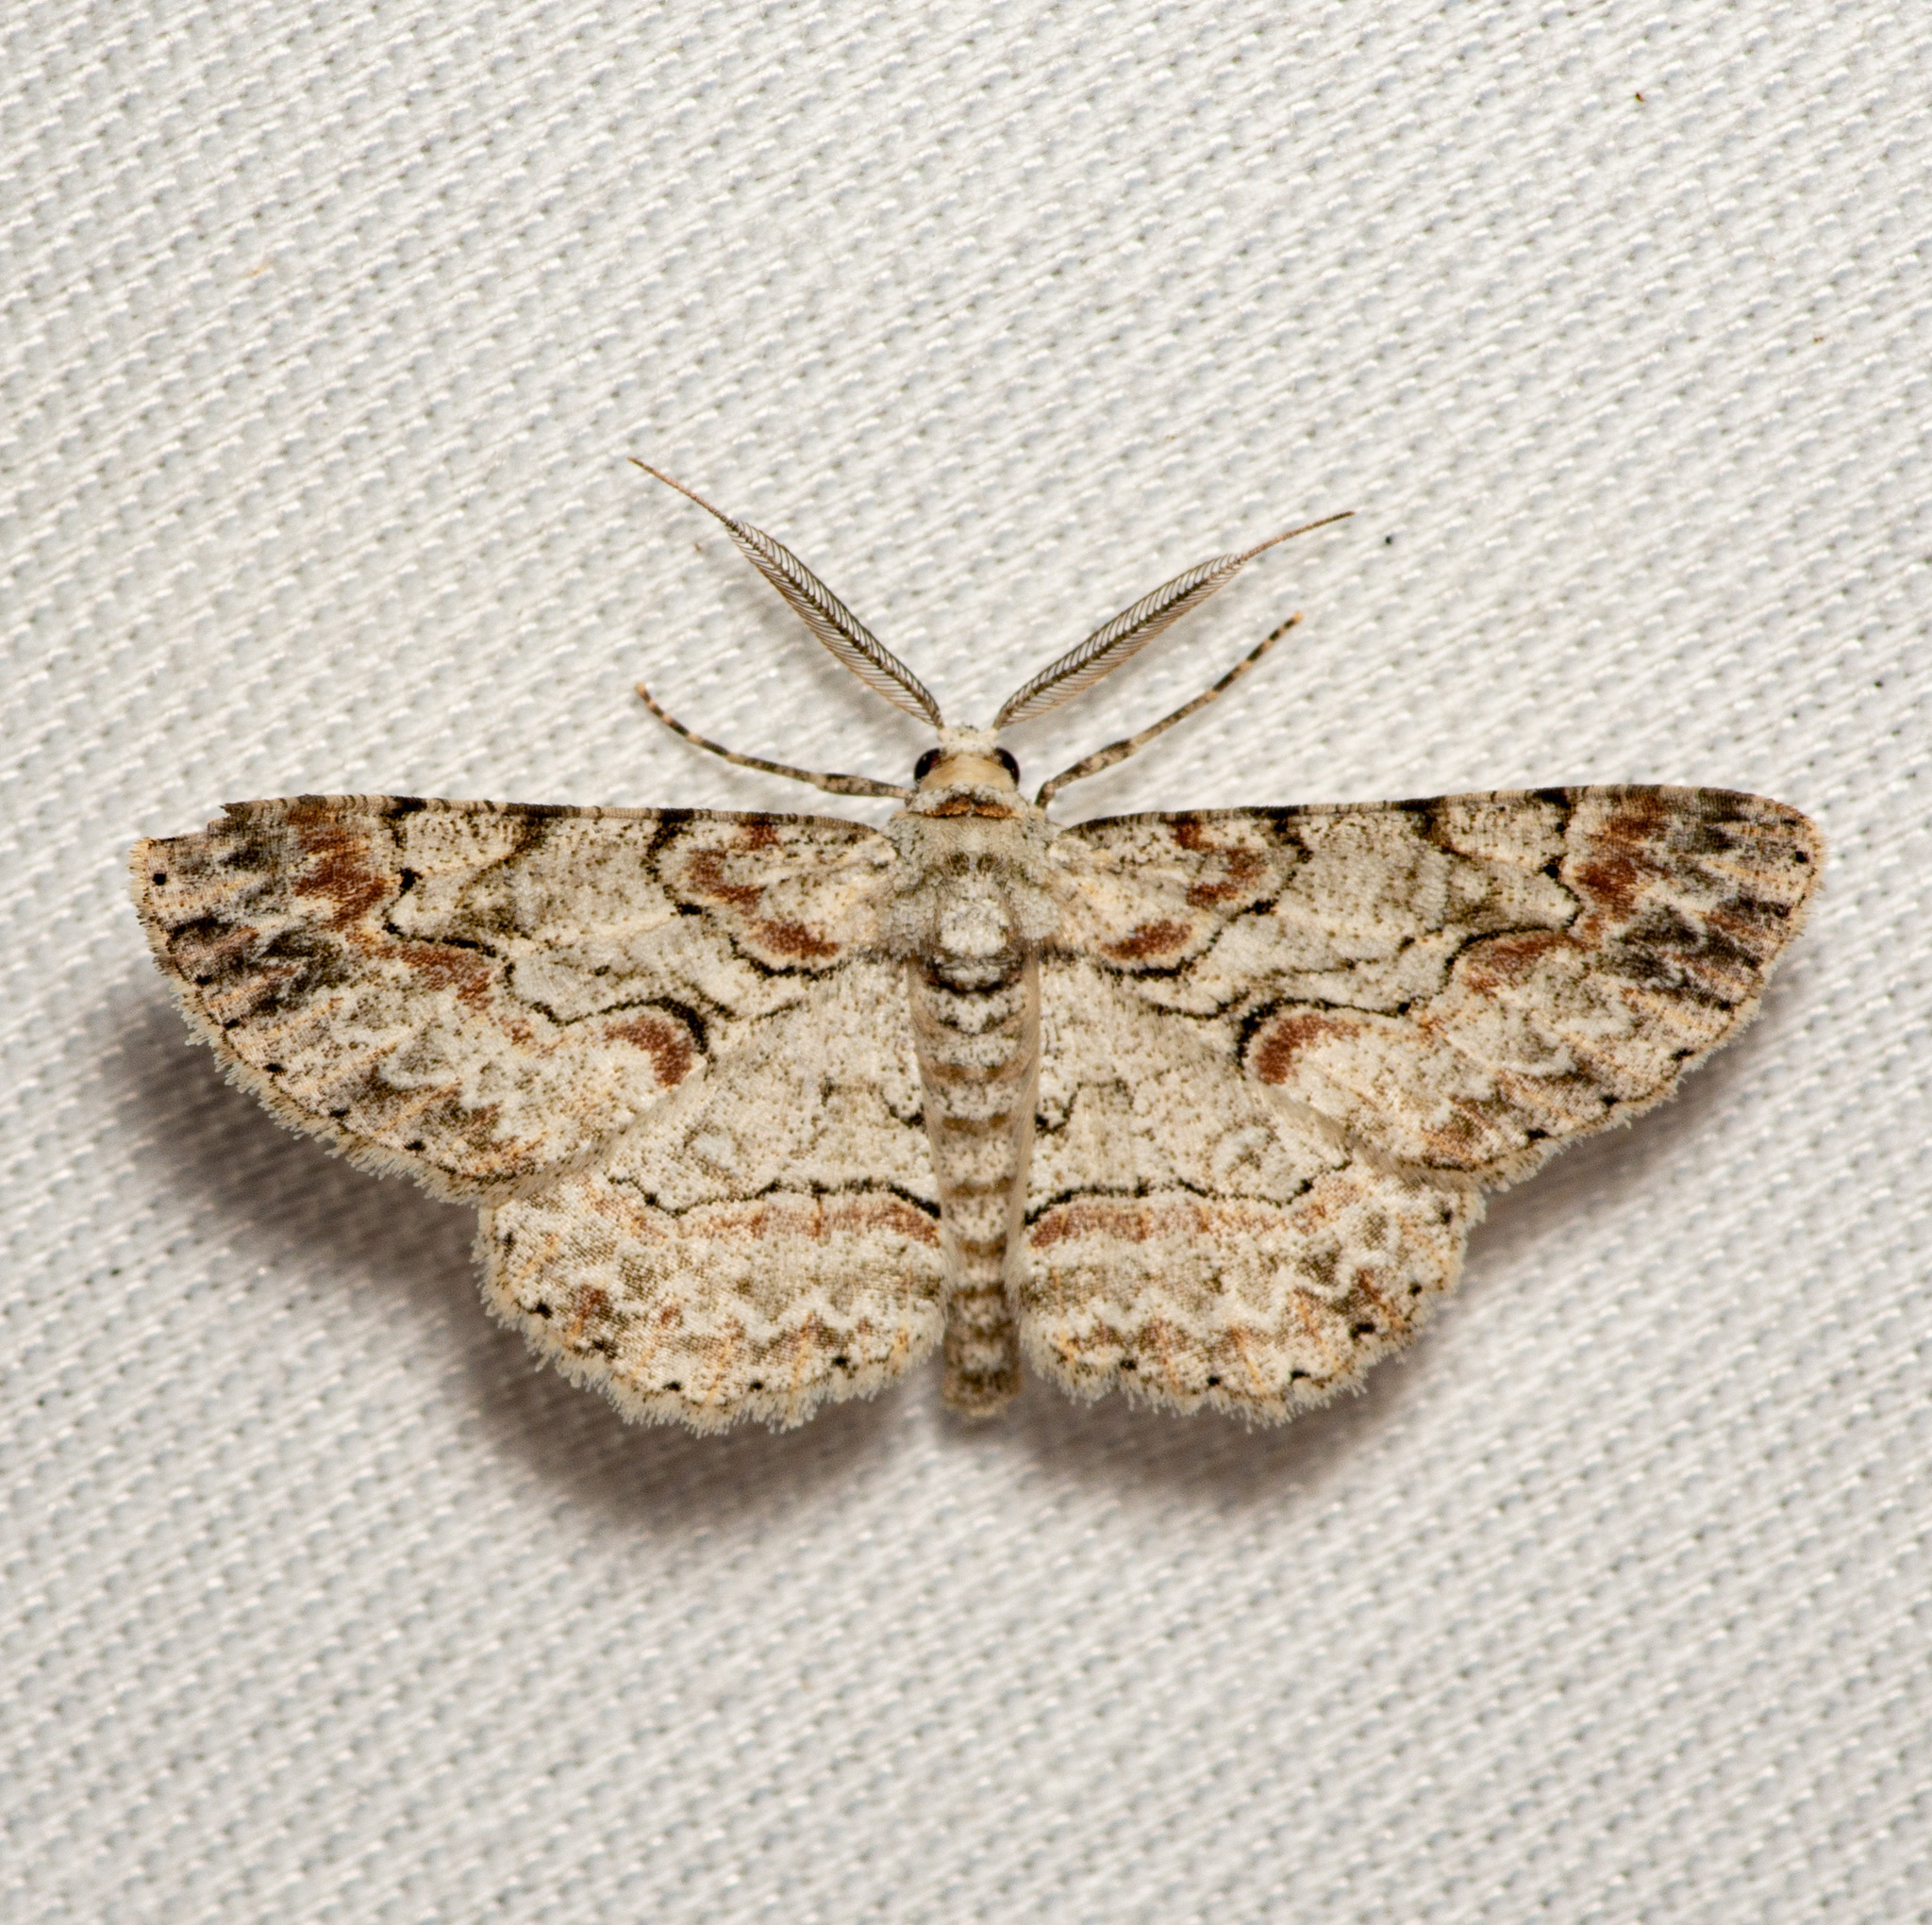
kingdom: Animalia
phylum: Arthropoda
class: Insecta
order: Lepidoptera
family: Geometridae
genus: Iridopsis
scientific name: Iridopsis defectaria
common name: Brown-shaded gray
